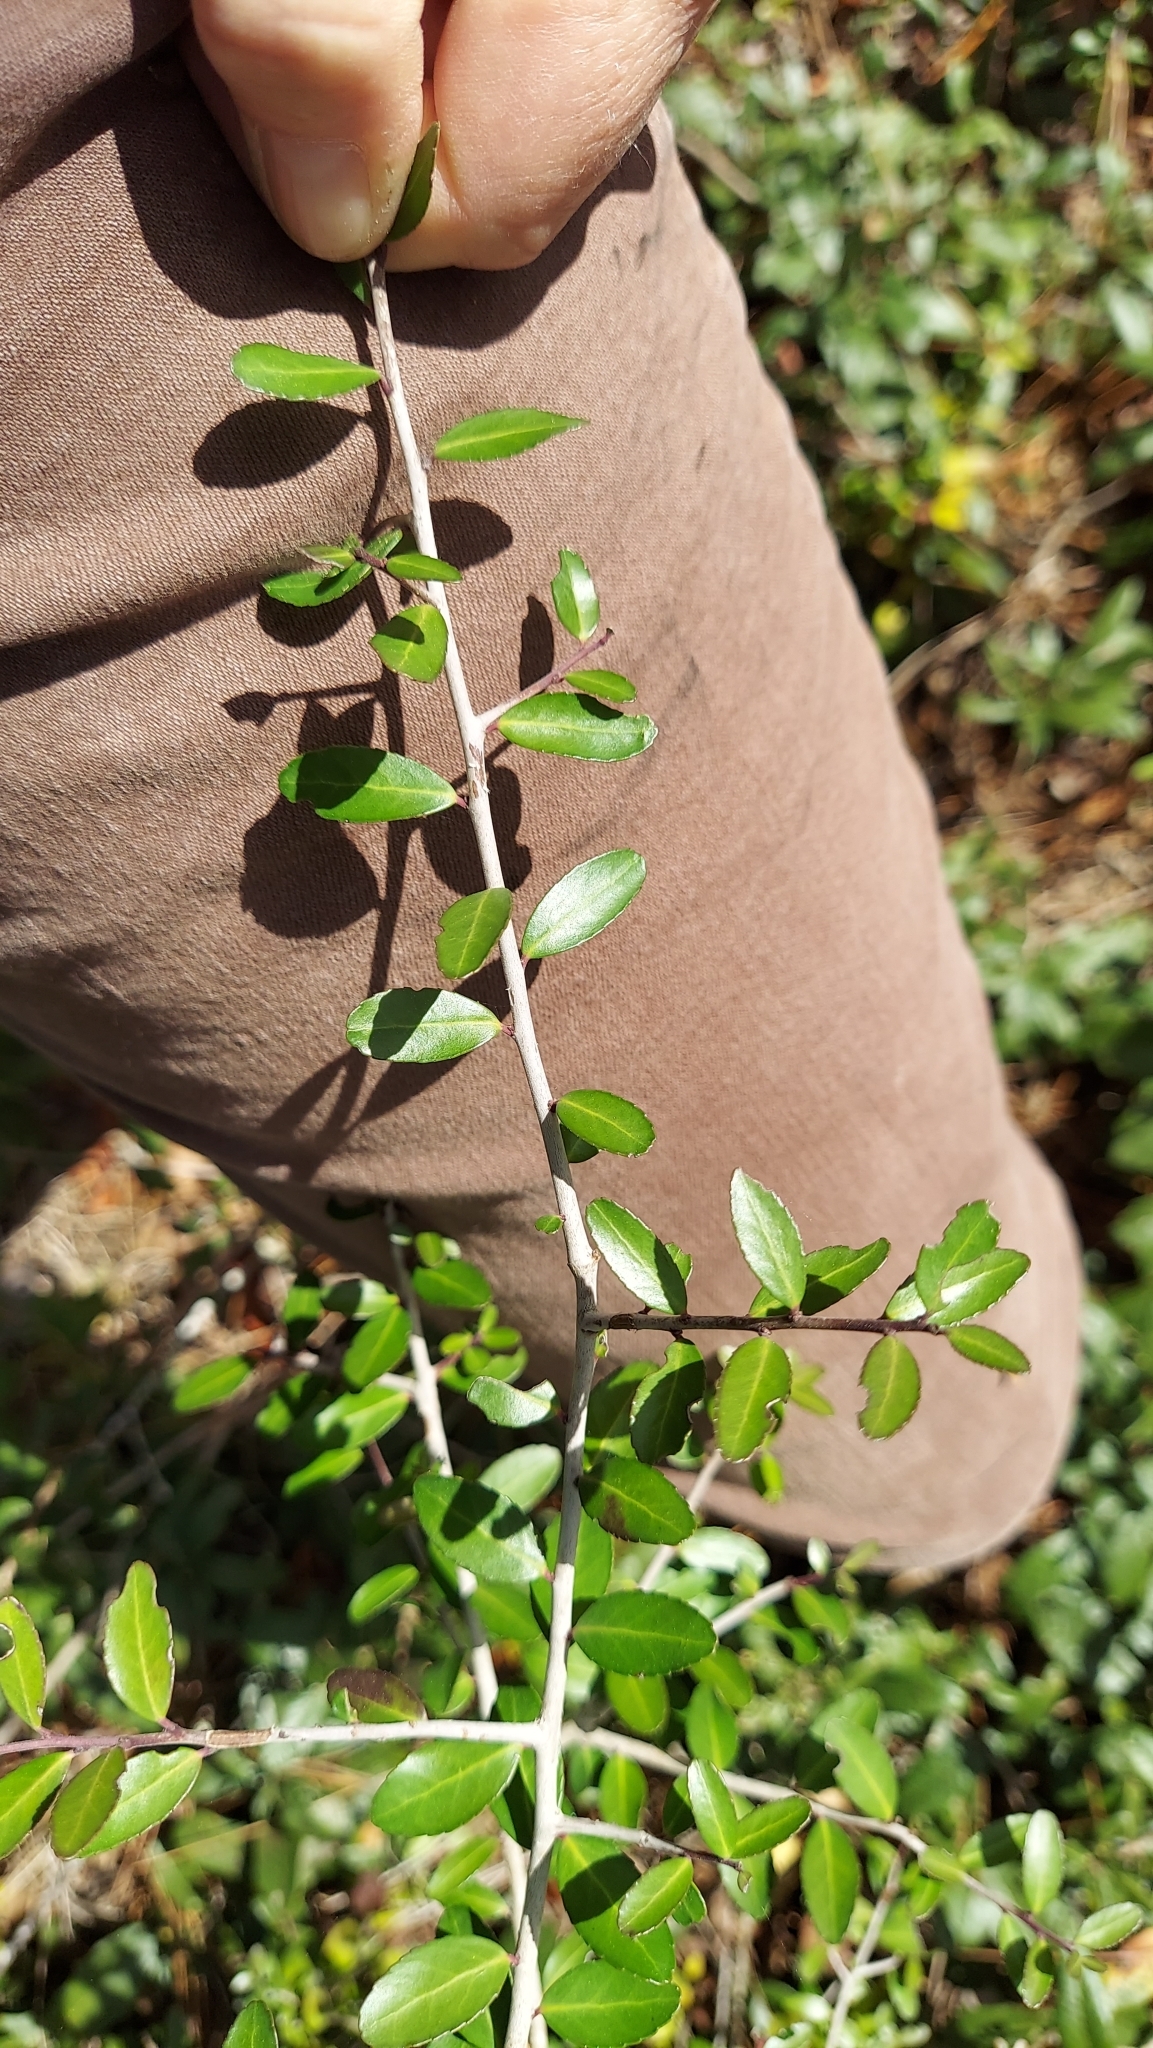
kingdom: Plantae
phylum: Tracheophyta
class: Magnoliopsida
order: Aquifoliales
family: Aquifoliaceae
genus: Ilex
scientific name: Ilex vomitoria
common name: Yaupon holly
